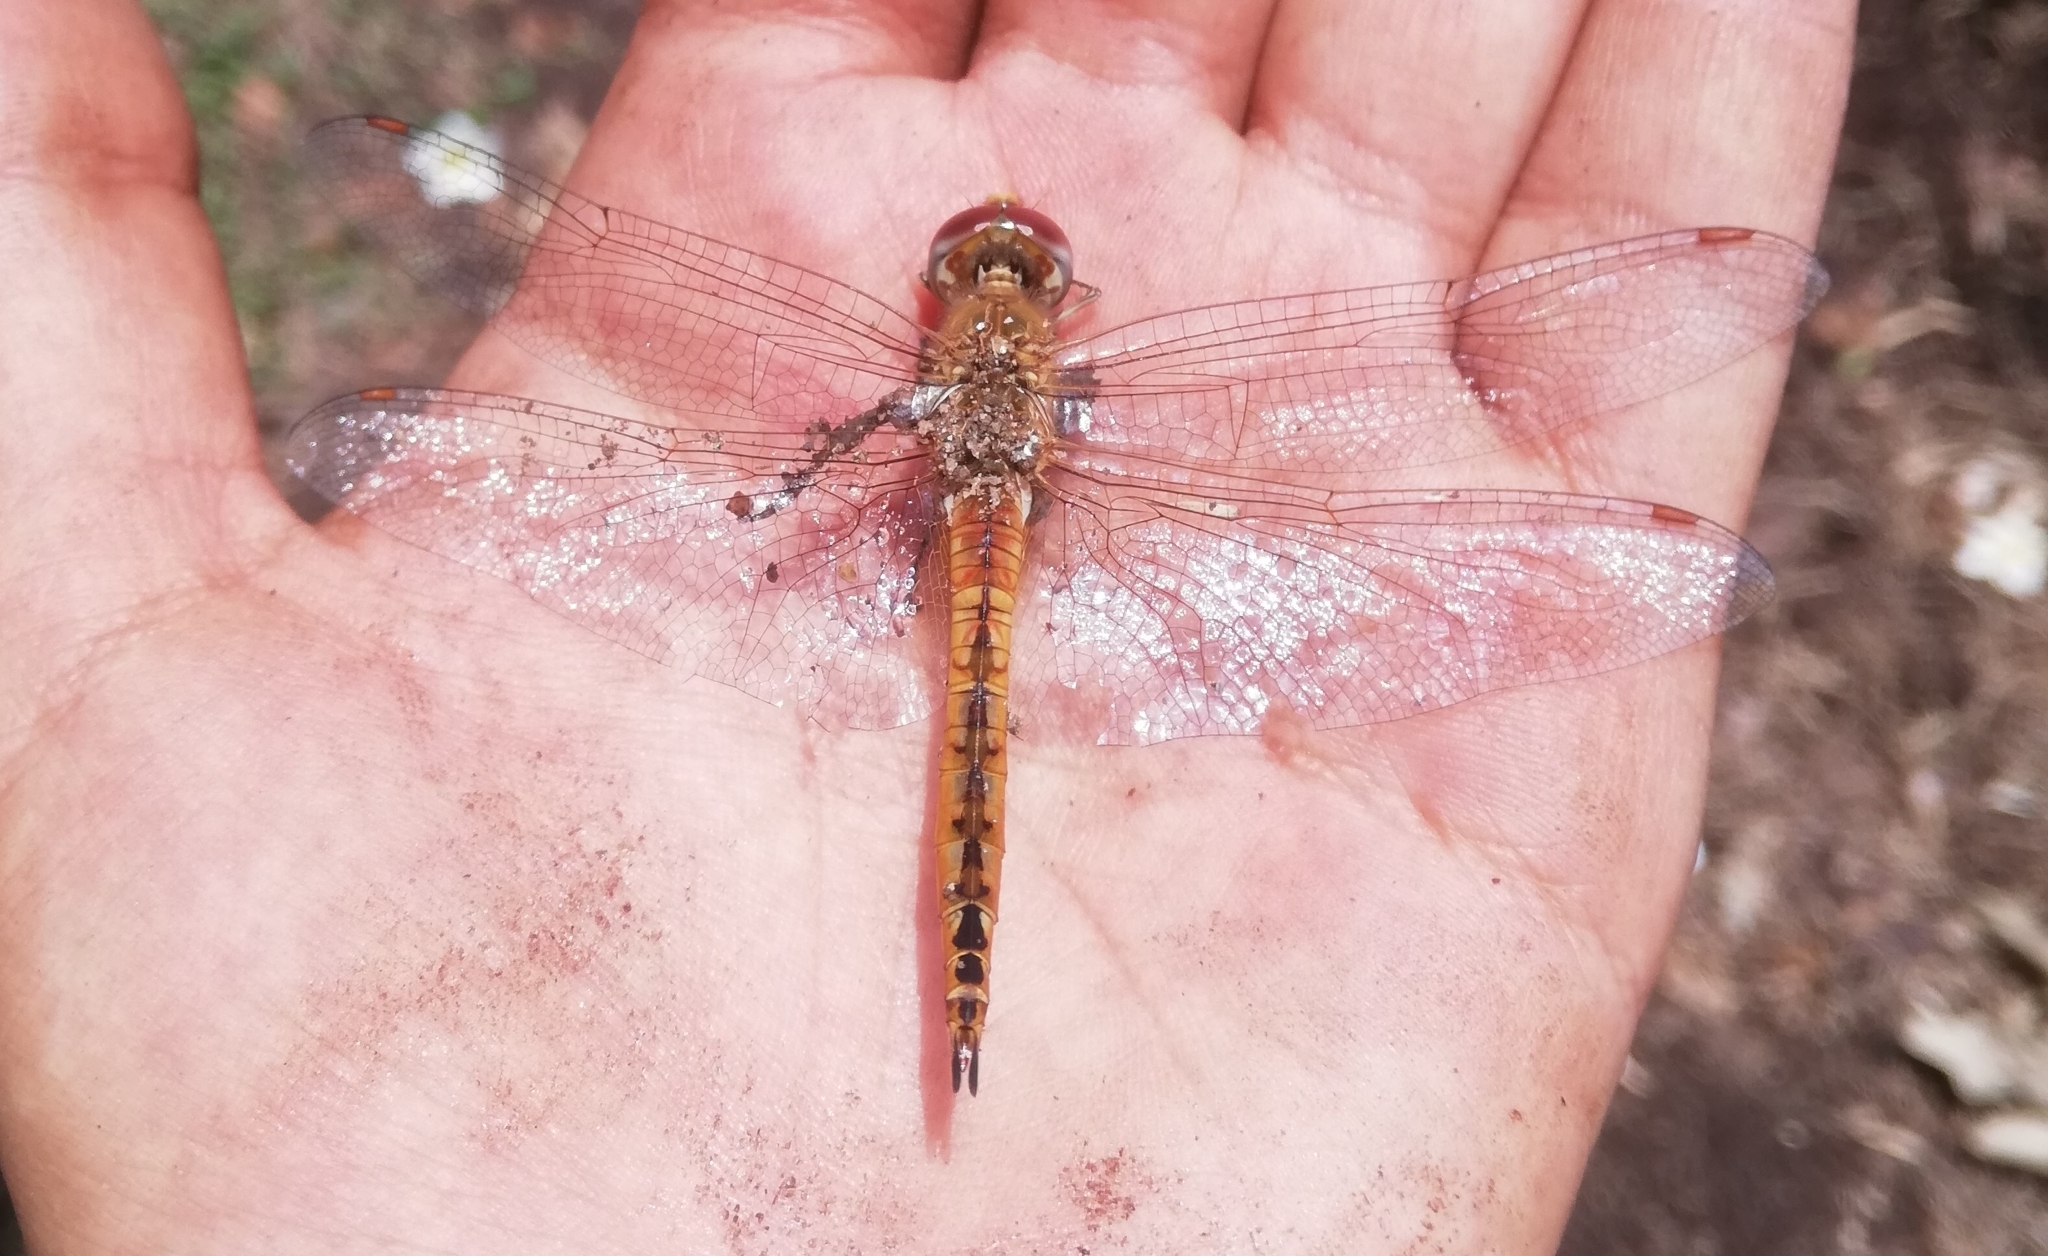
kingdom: Animalia
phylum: Arthropoda
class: Insecta
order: Odonata
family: Libellulidae
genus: Pantala
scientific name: Pantala flavescens
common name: Wandering glider
